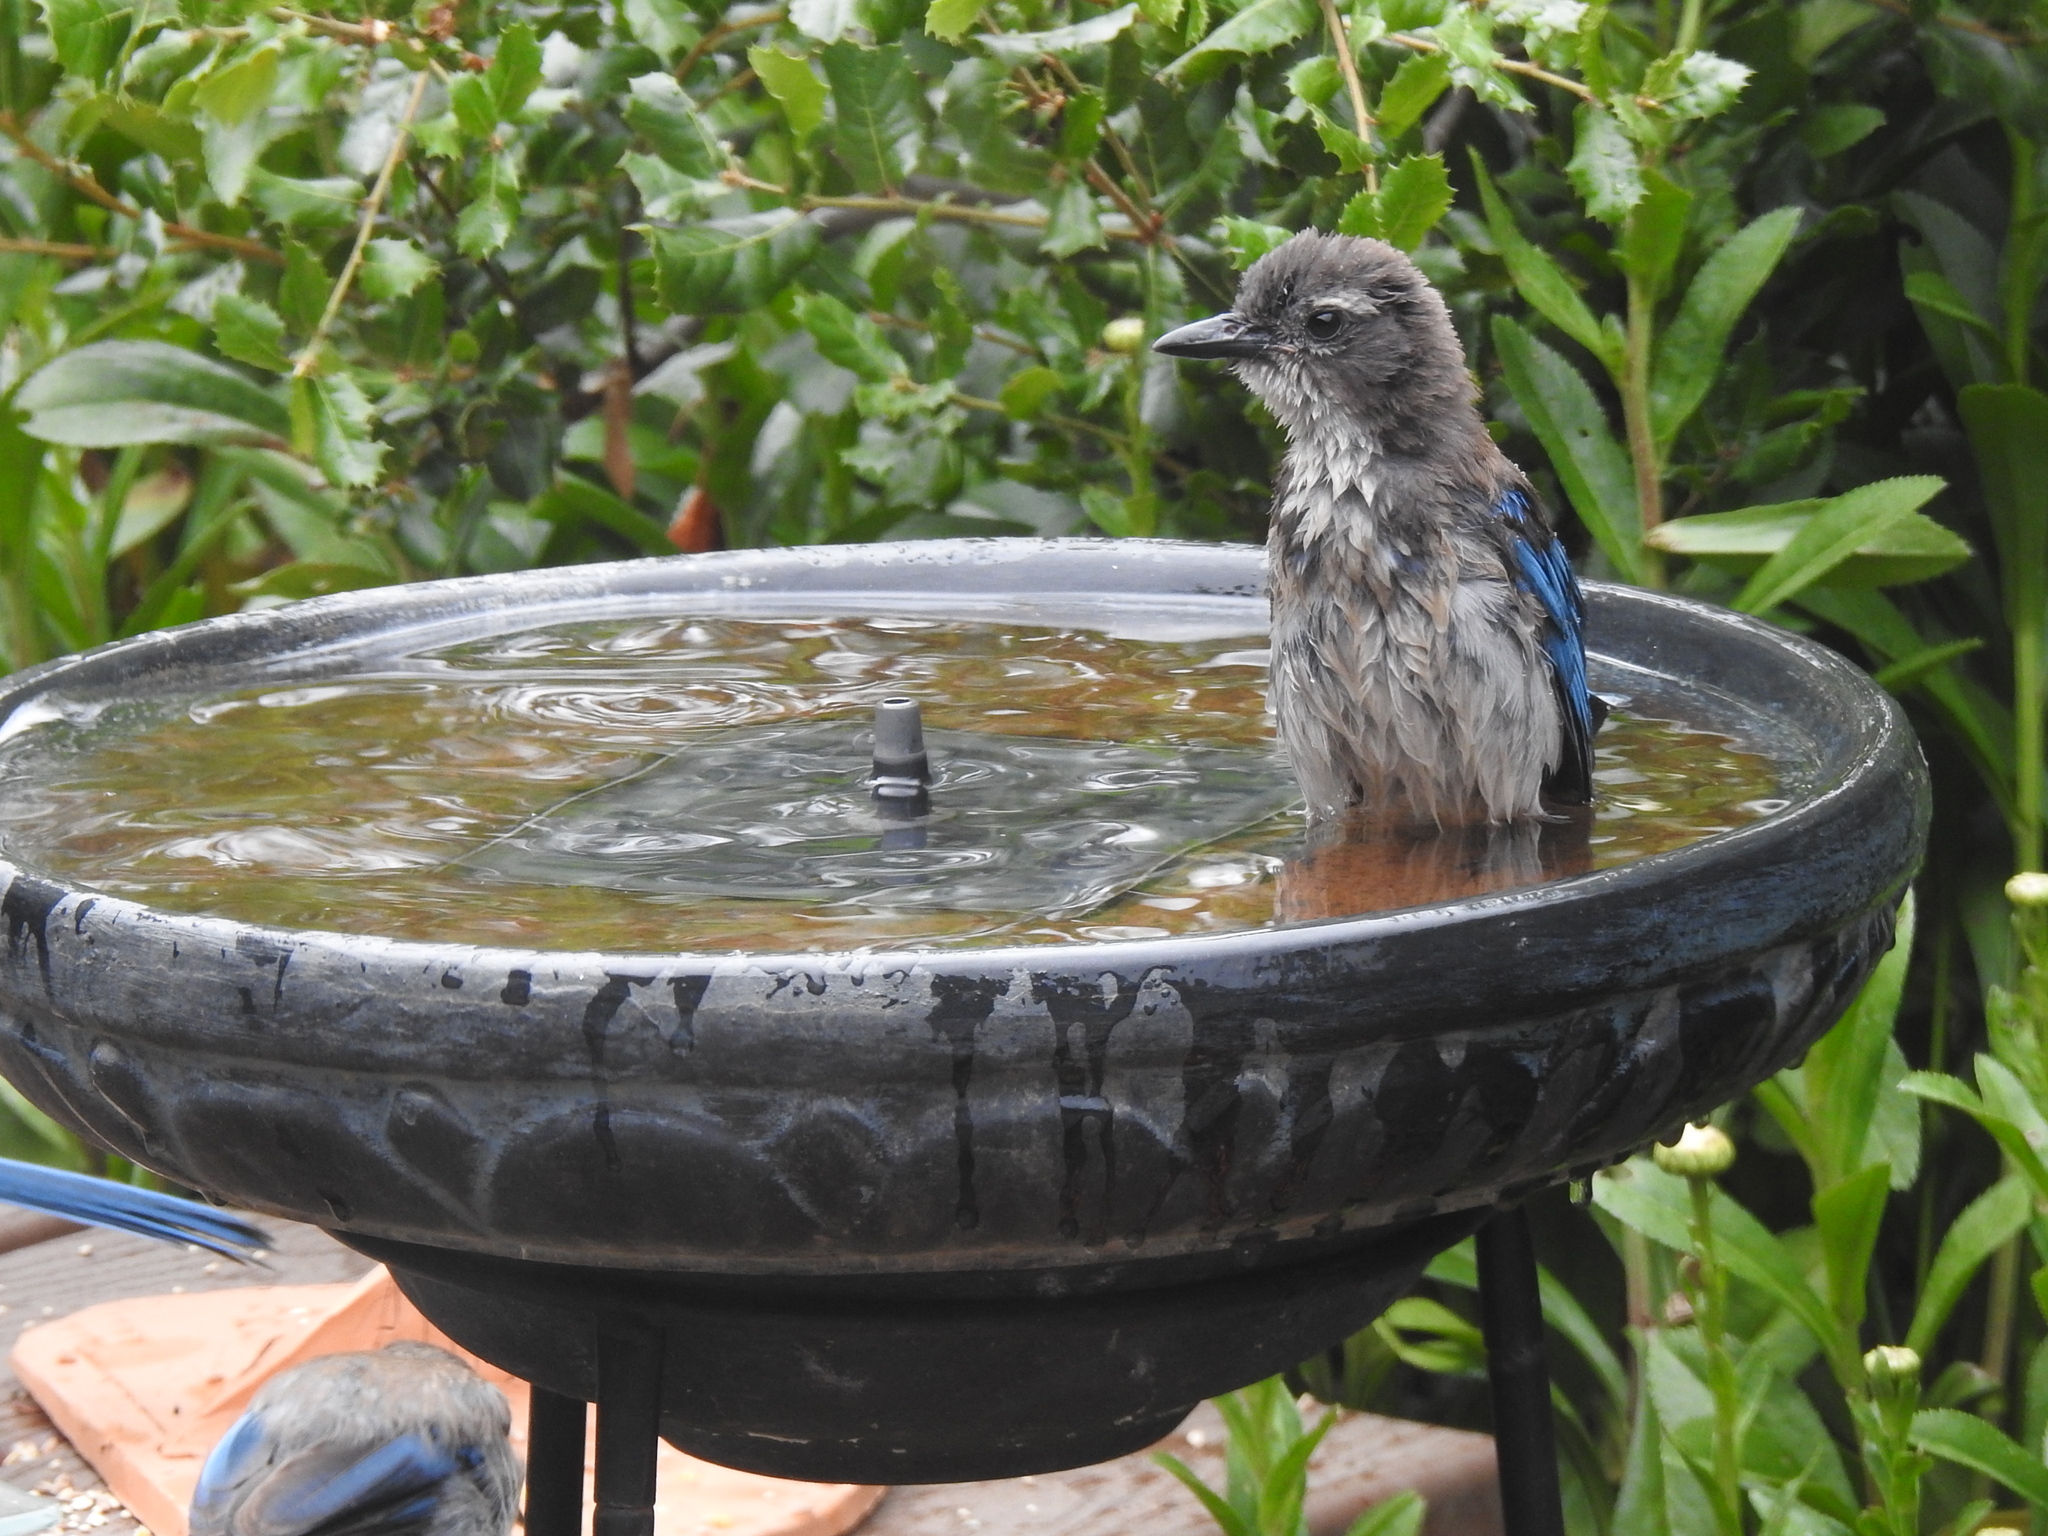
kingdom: Animalia
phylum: Chordata
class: Aves
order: Passeriformes
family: Corvidae
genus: Aphelocoma
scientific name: Aphelocoma californica
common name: California scrub-jay
